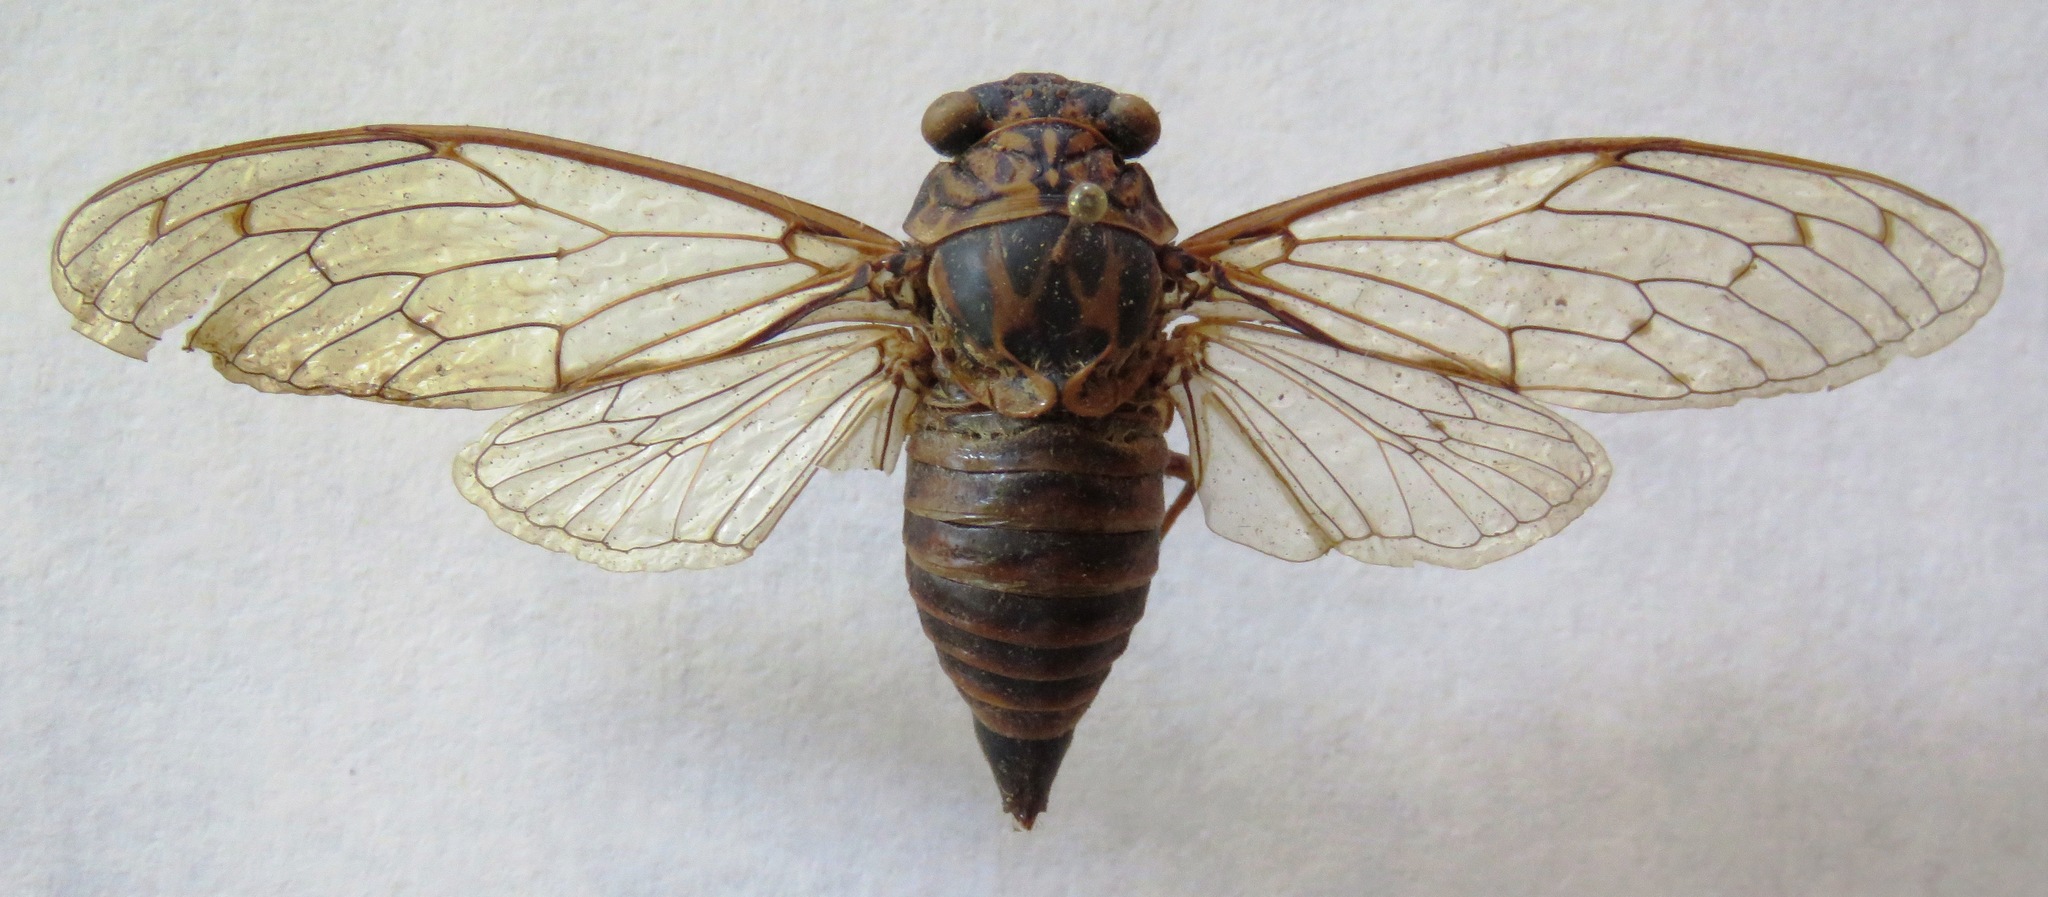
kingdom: Animalia
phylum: Arthropoda
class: Insecta
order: Hemiptera
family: Cicadidae
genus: Cicada
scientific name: Cicada orni
